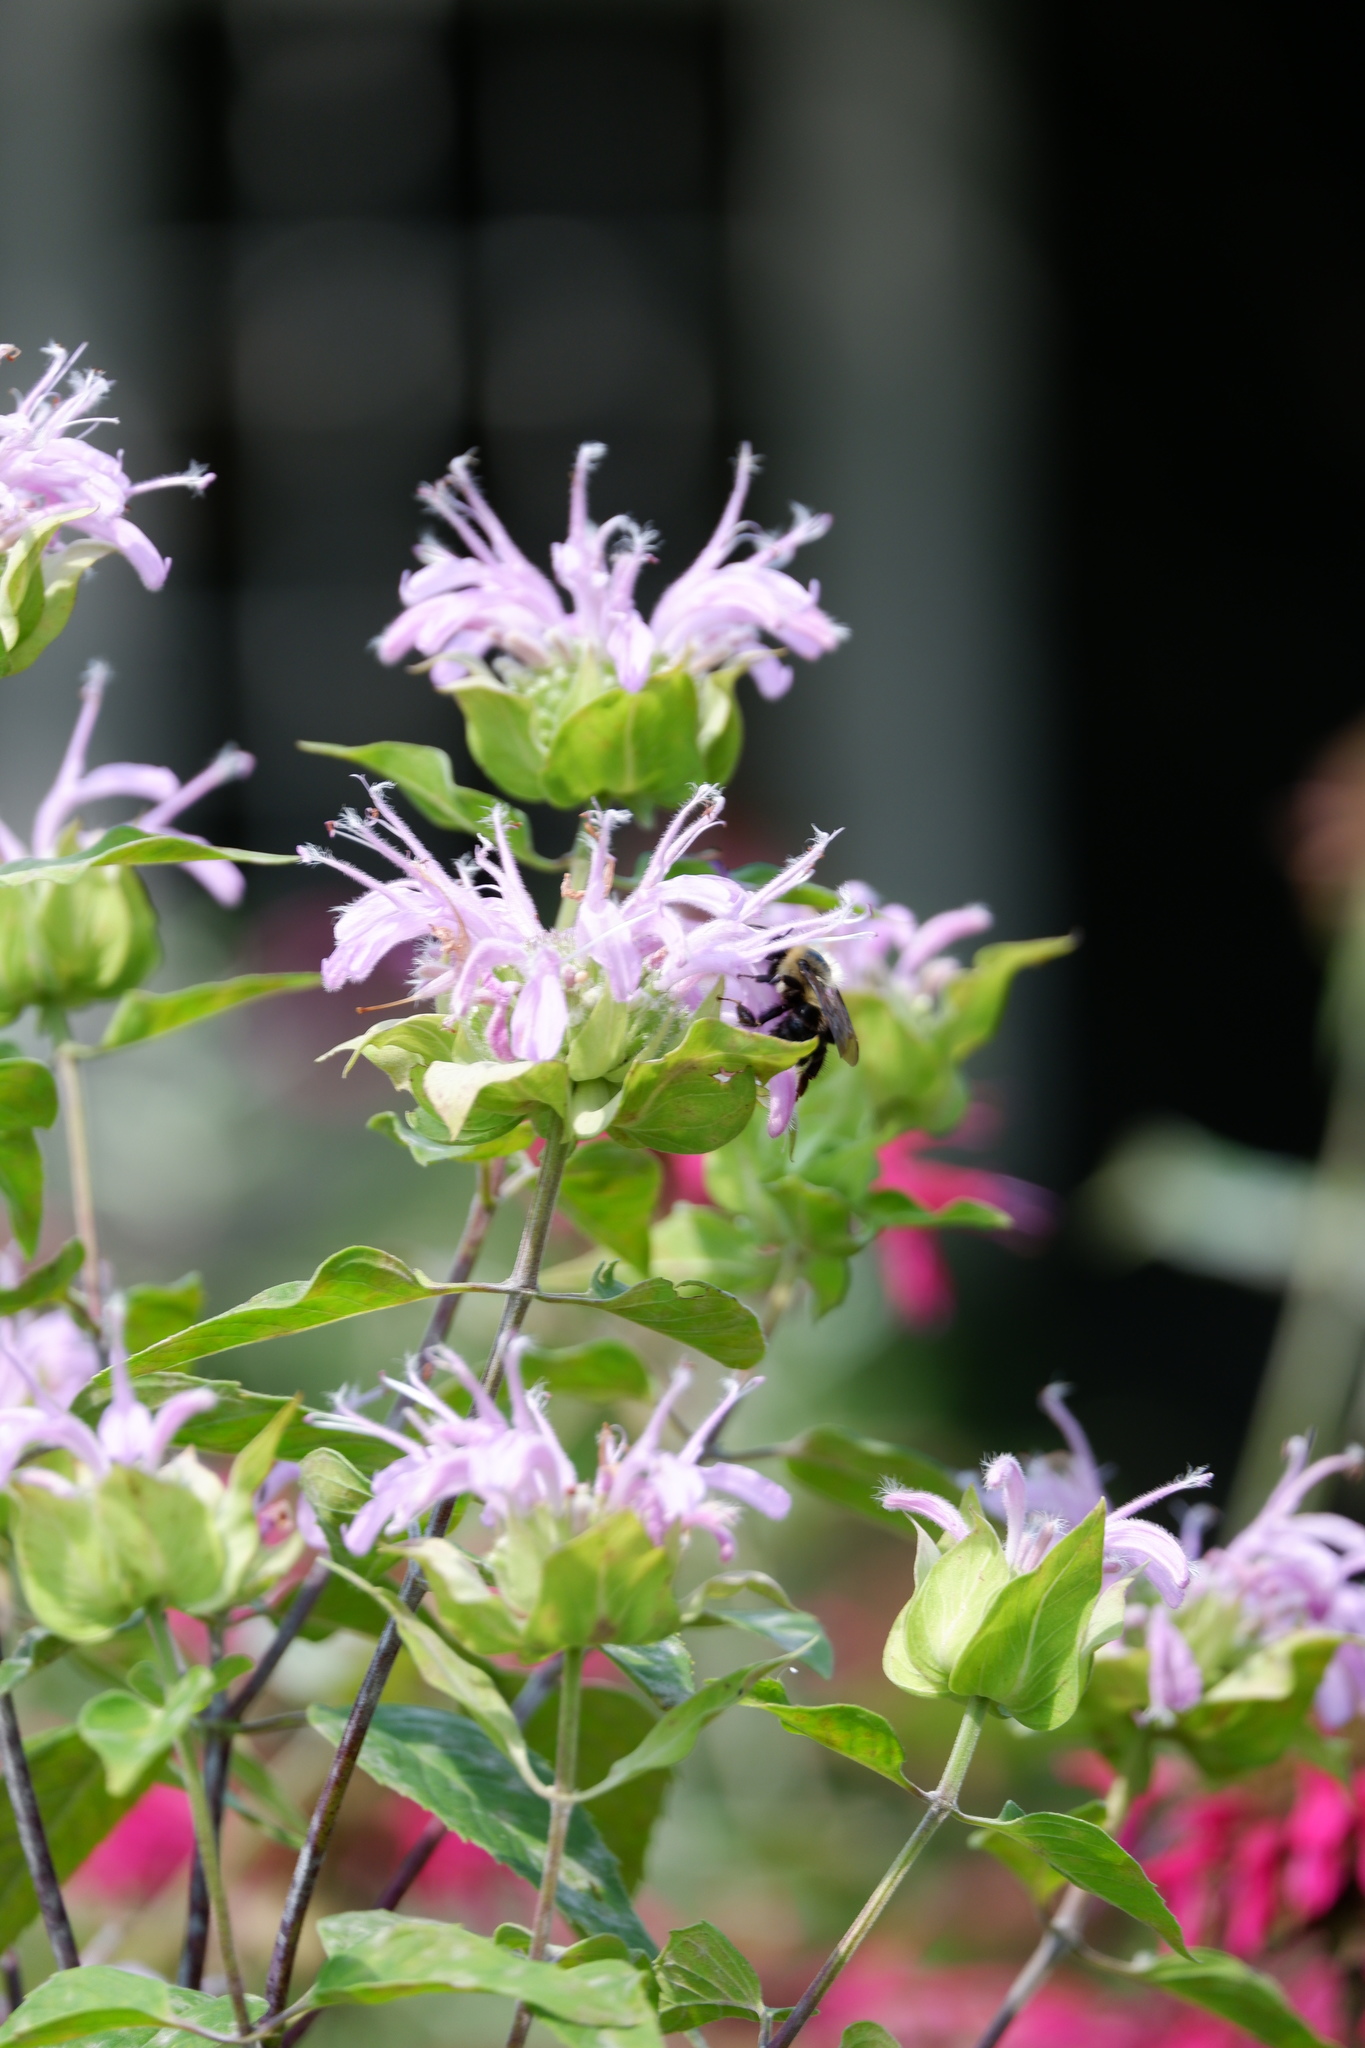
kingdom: Animalia
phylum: Arthropoda
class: Insecta
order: Hymenoptera
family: Apidae
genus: Bombus
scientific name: Bombus impatiens
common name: Common eastern bumble bee
